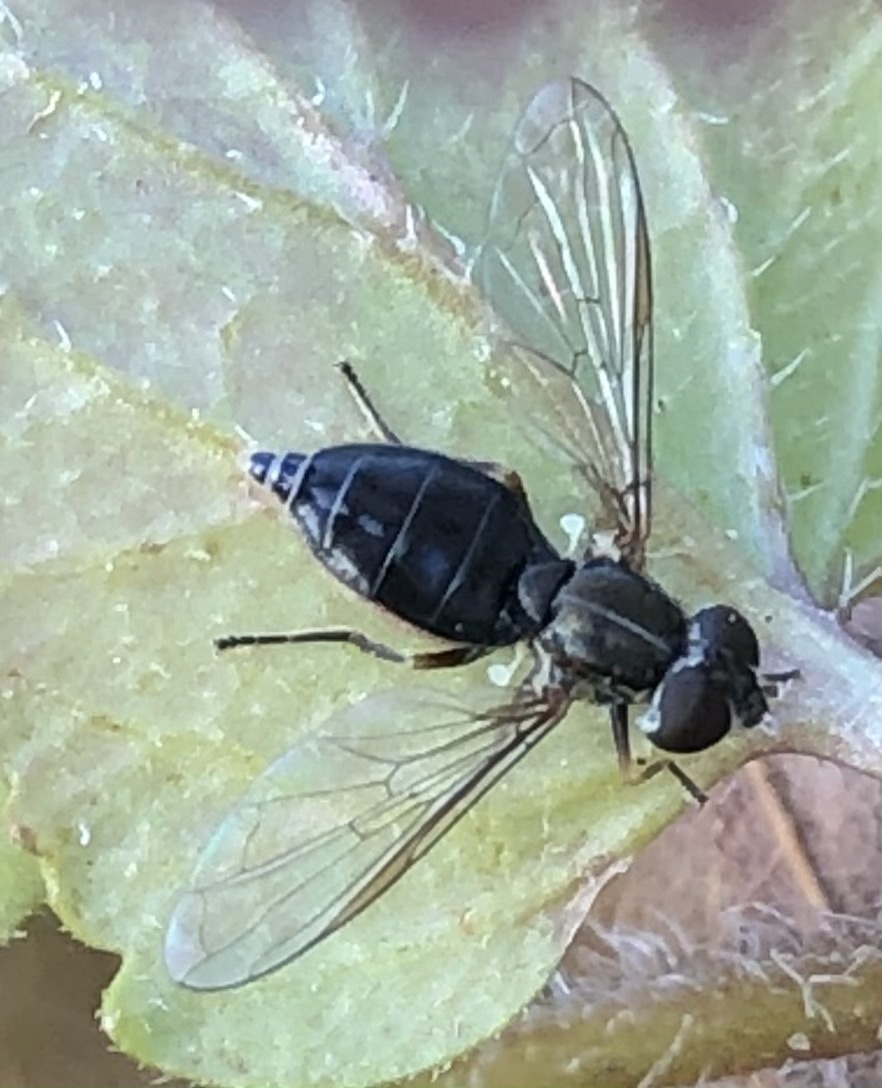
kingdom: Animalia
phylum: Arthropoda
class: Insecta
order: Diptera
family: Syrphidae
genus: Toxomerus
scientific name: Toxomerus marginatus
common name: Syrphid fly
